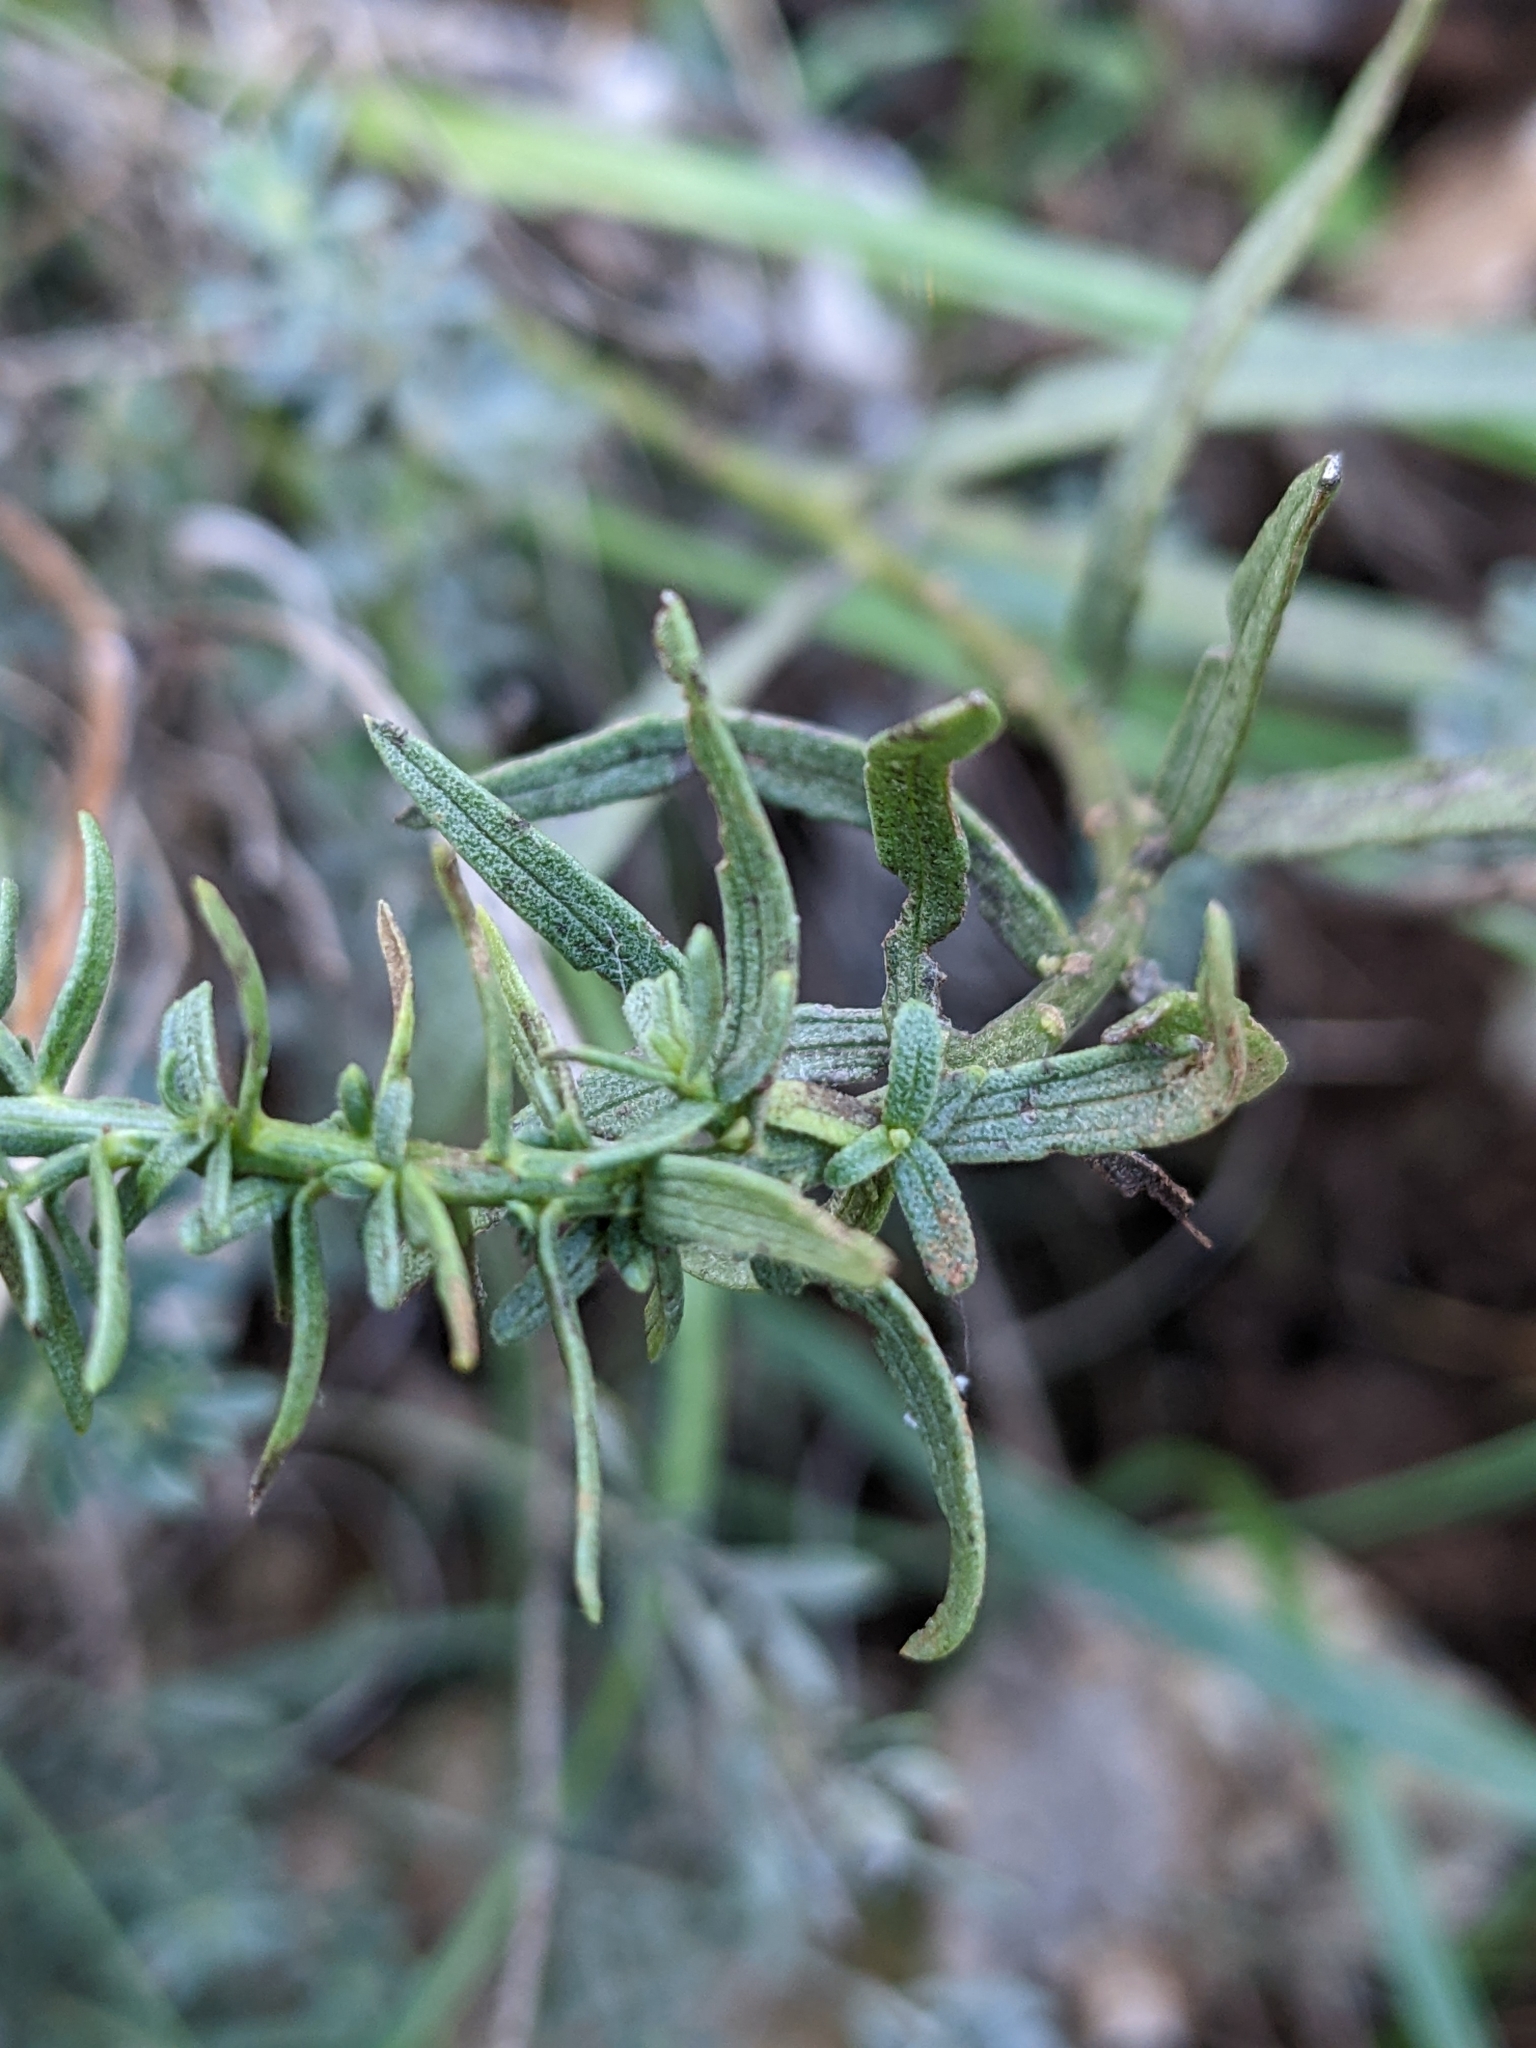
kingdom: Plantae
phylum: Tracheophyta
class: Magnoliopsida
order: Asterales
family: Asteraceae
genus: Galatella
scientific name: Galatella sedifolia
